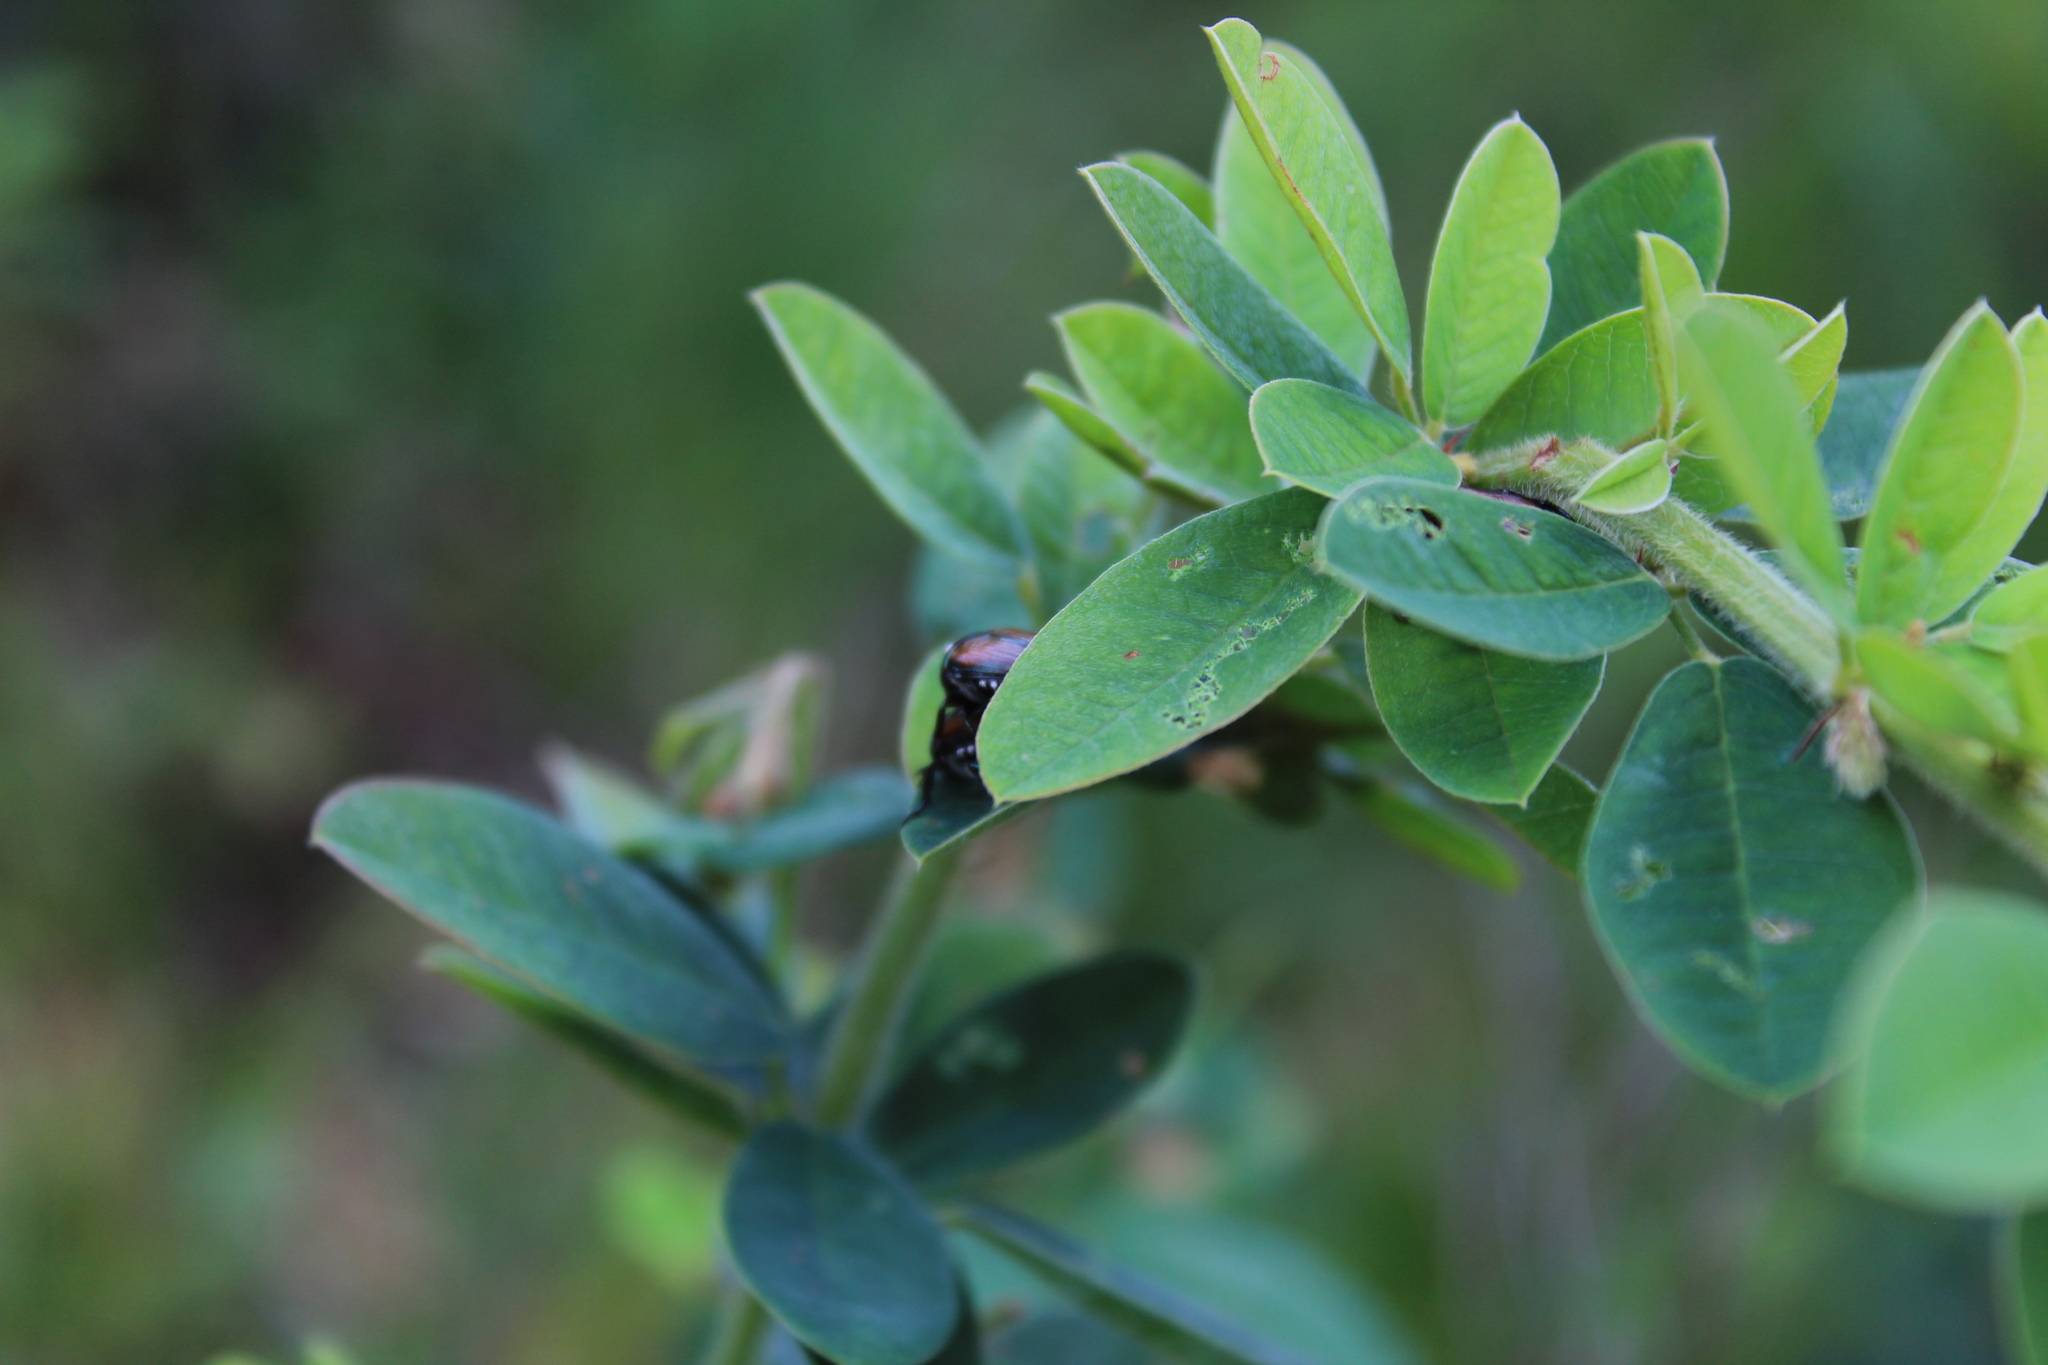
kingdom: Animalia
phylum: Arthropoda
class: Insecta
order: Coleoptera
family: Scarabaeidae
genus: Popillia
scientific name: Popillia japonica
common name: Japanese beetle
